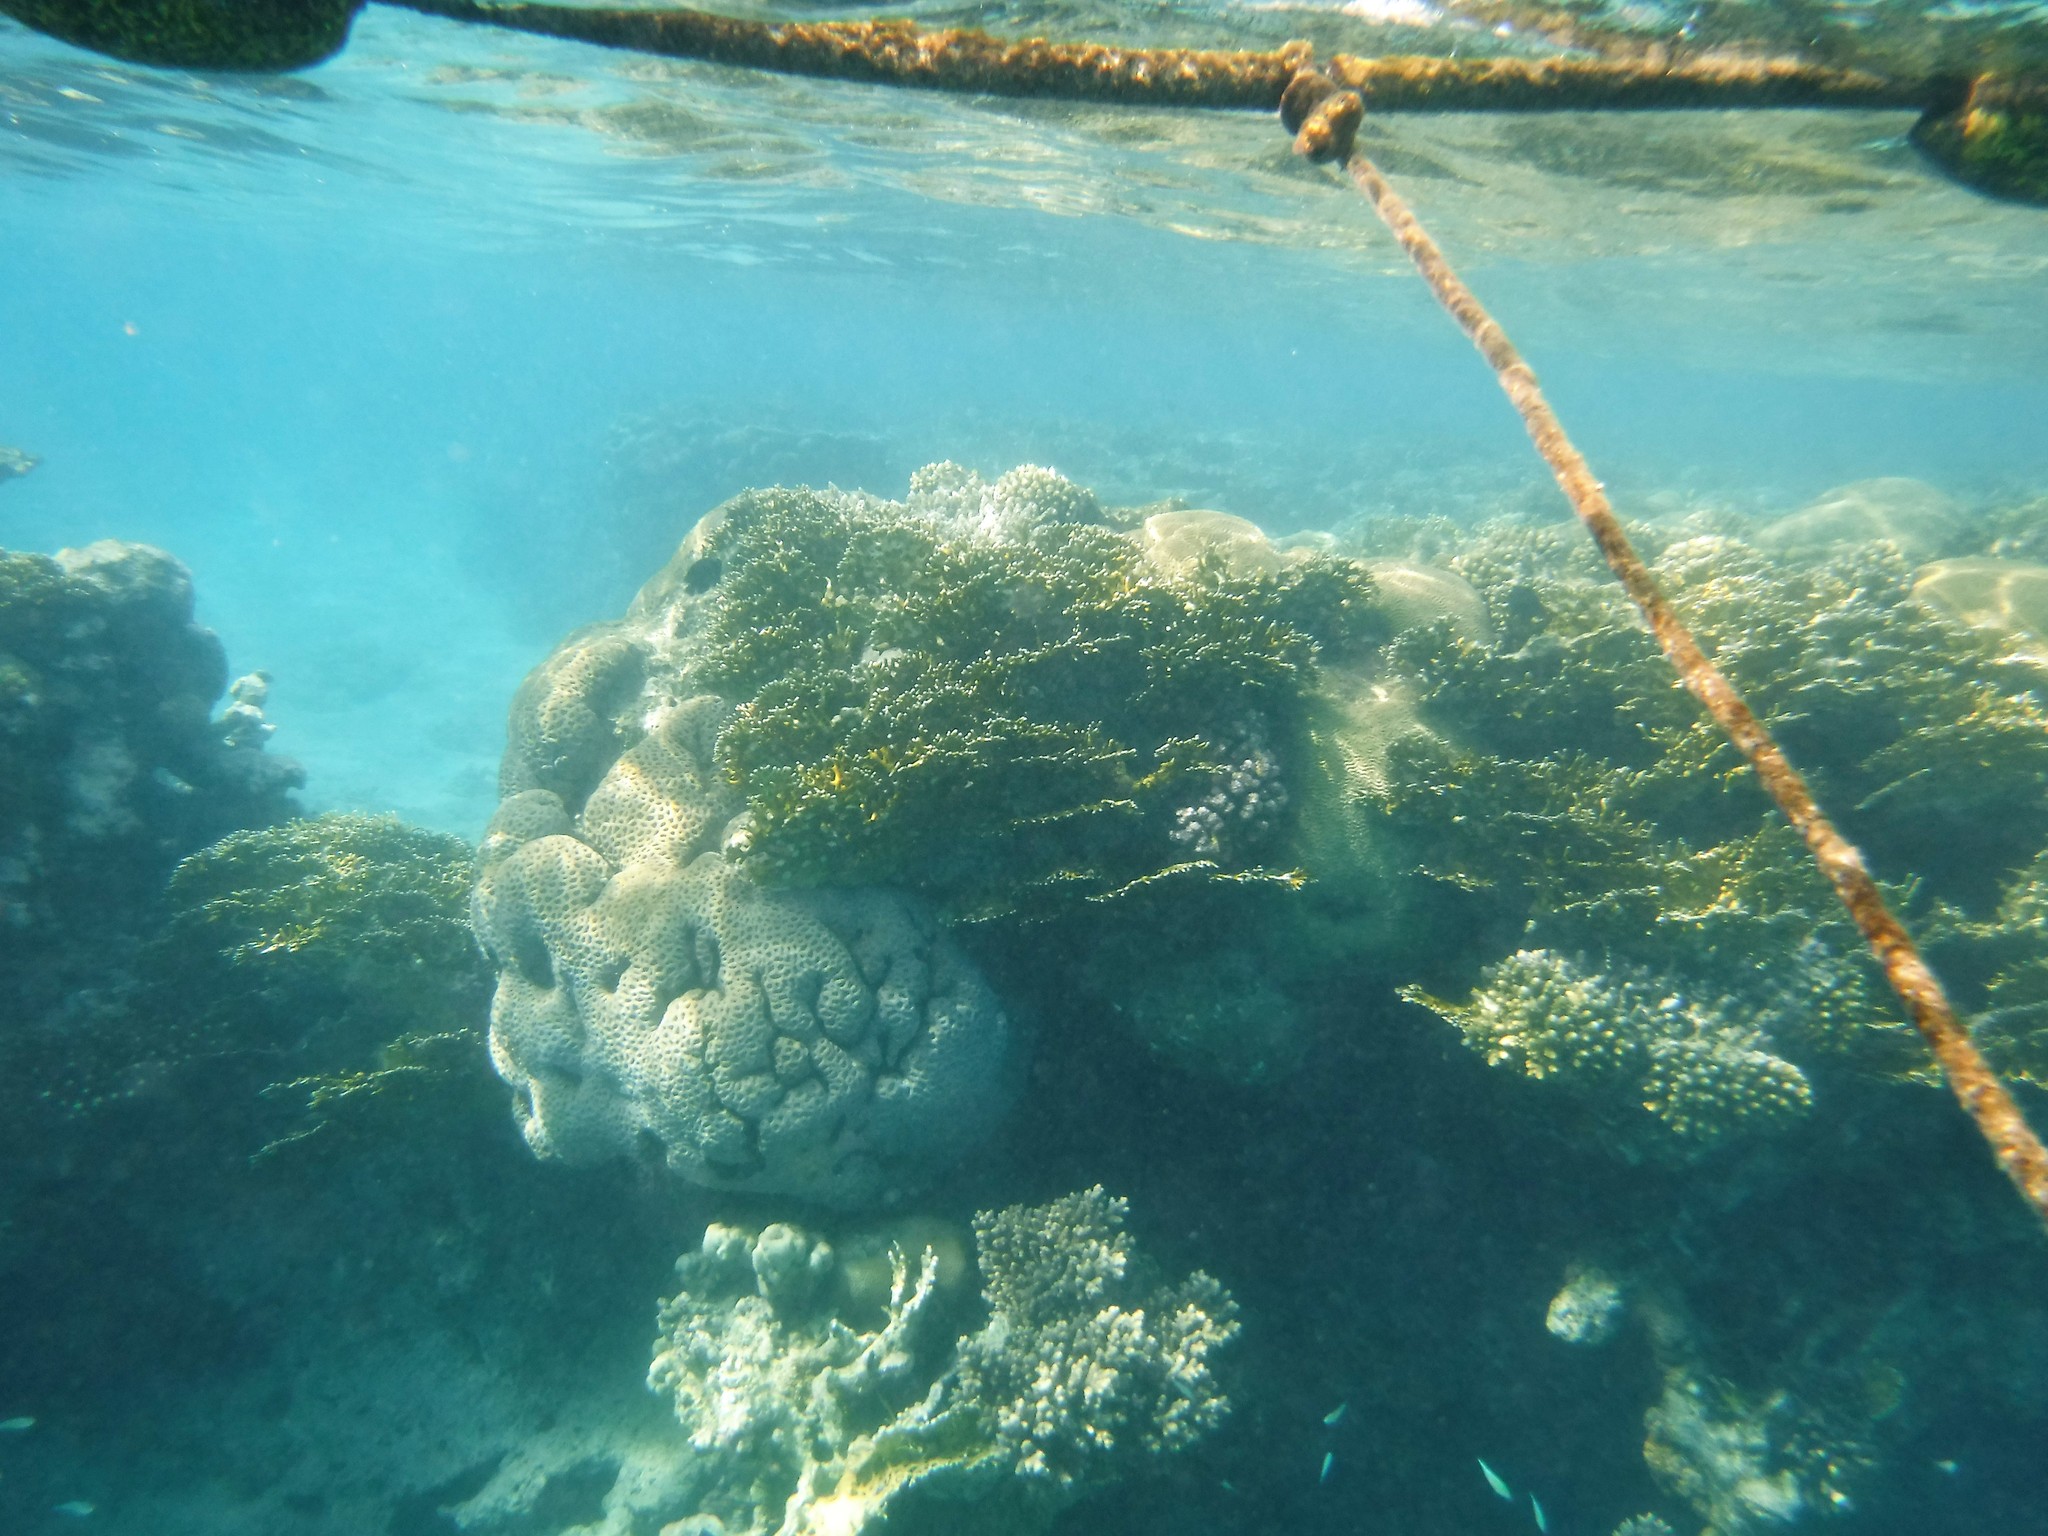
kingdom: Animalia
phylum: Cnidaria
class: Hydrozoa
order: Anthoathecata
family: Milleporidae
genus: Millepora
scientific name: Millepora dichotoma
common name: Ramified fire coral
